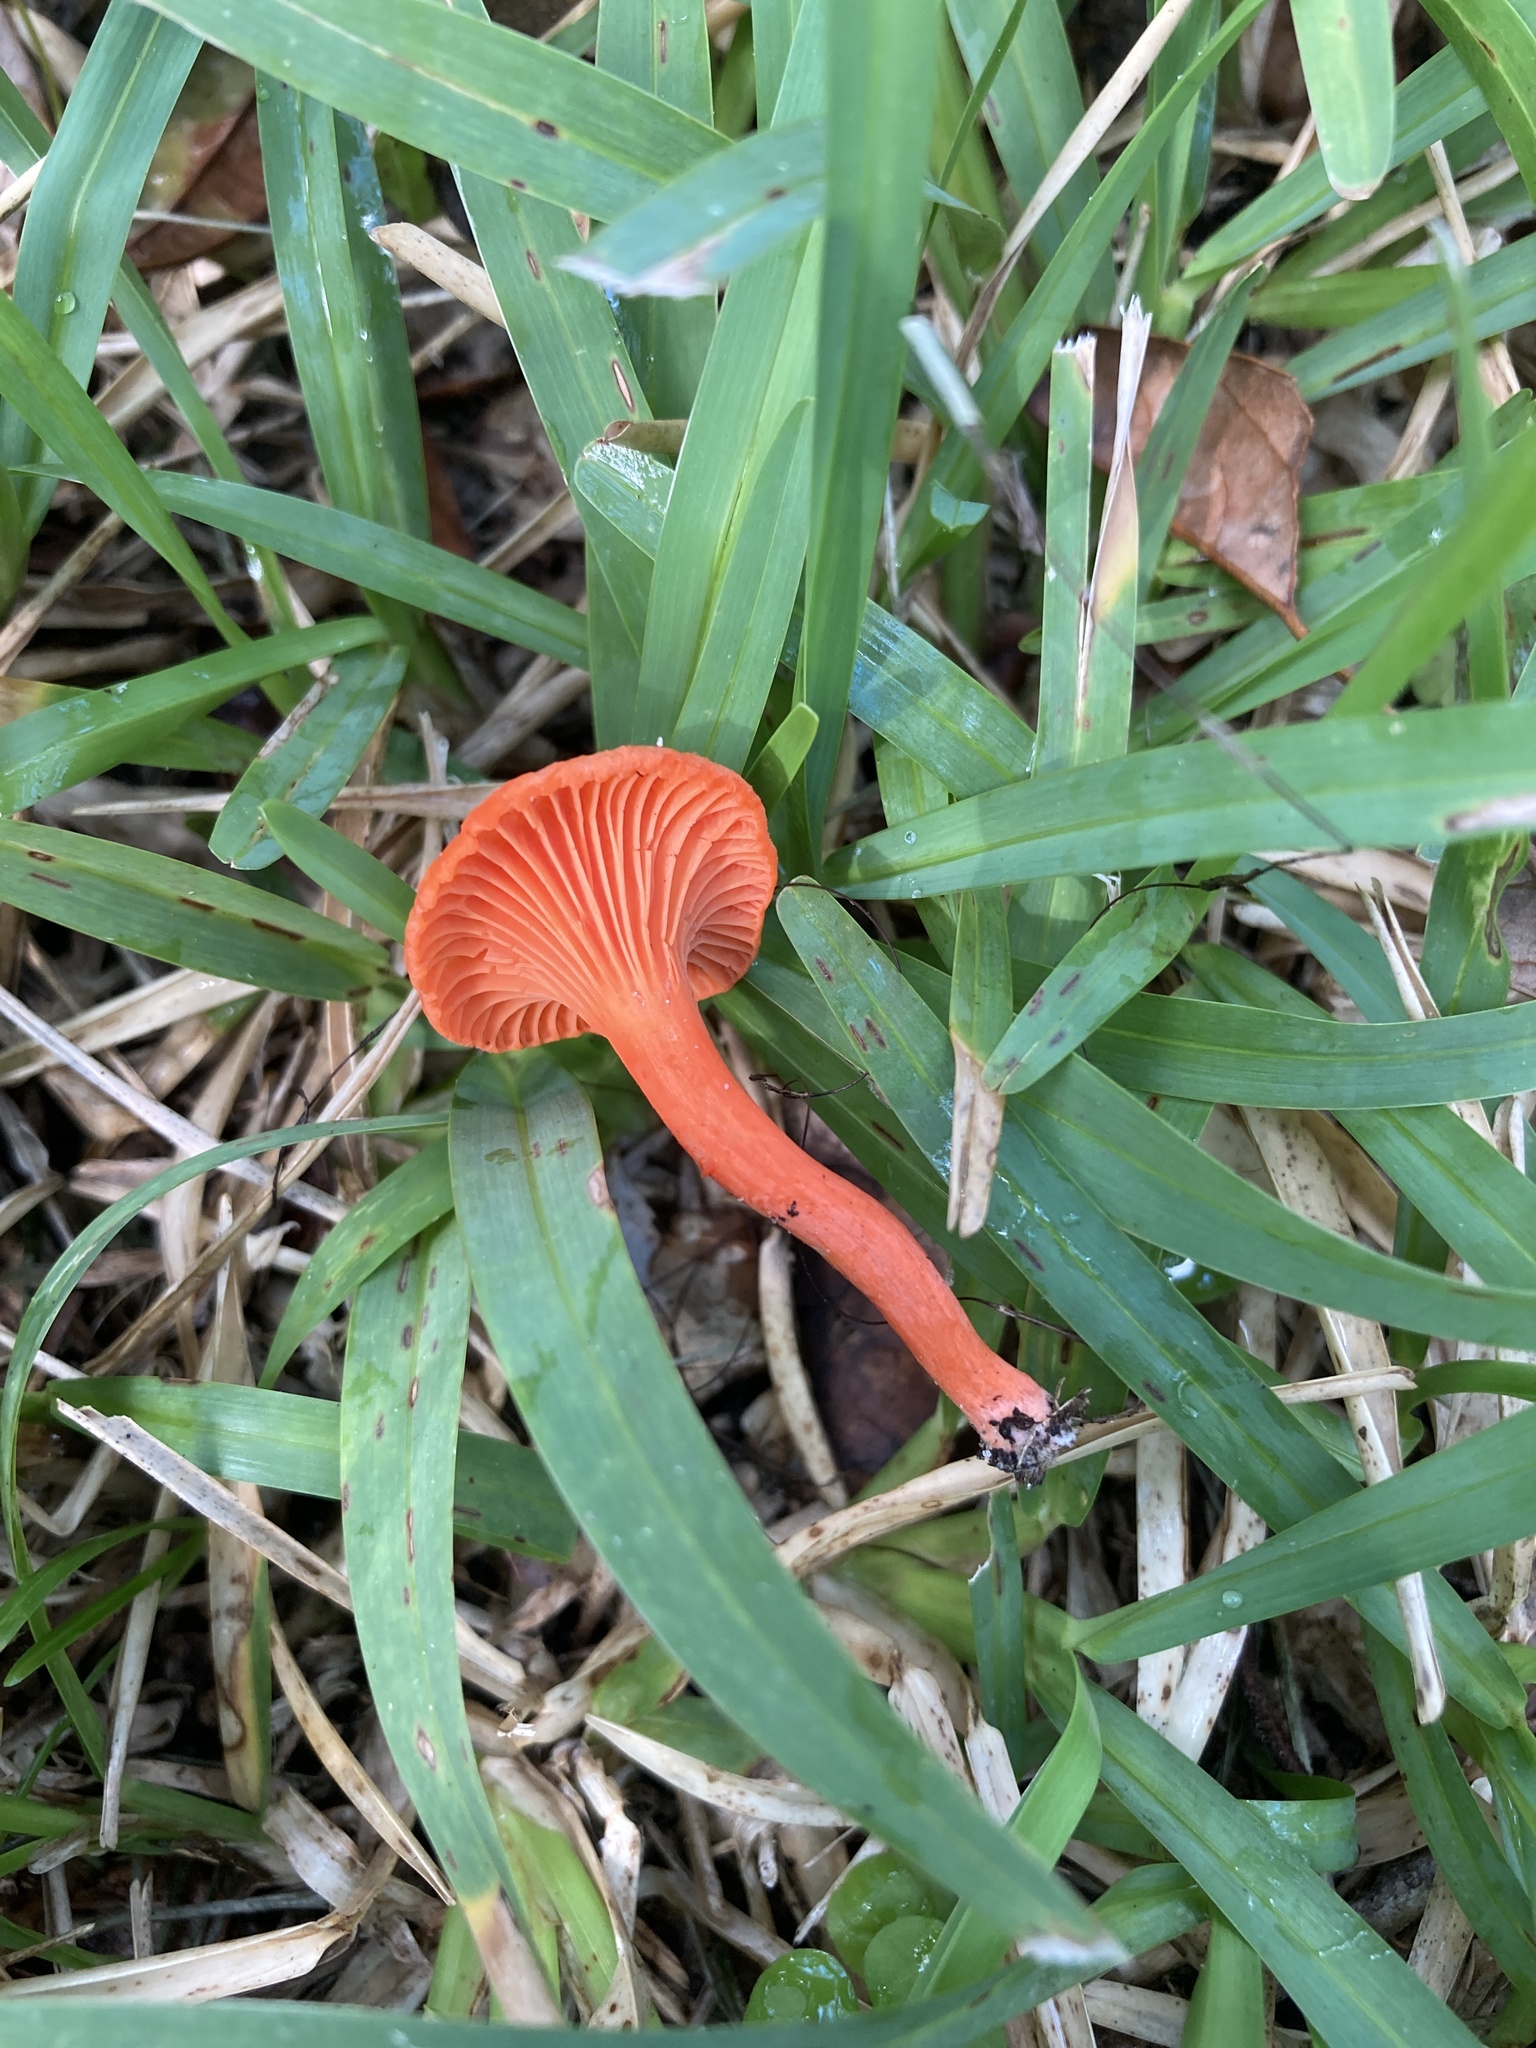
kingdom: Fungi
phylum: Basidiomycota
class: Agaricomycetes
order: Cantharellales
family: Hydnaceae
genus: Cantharellus
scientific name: Cantharellus cinnabarinus
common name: Cinnabar chanterelle
